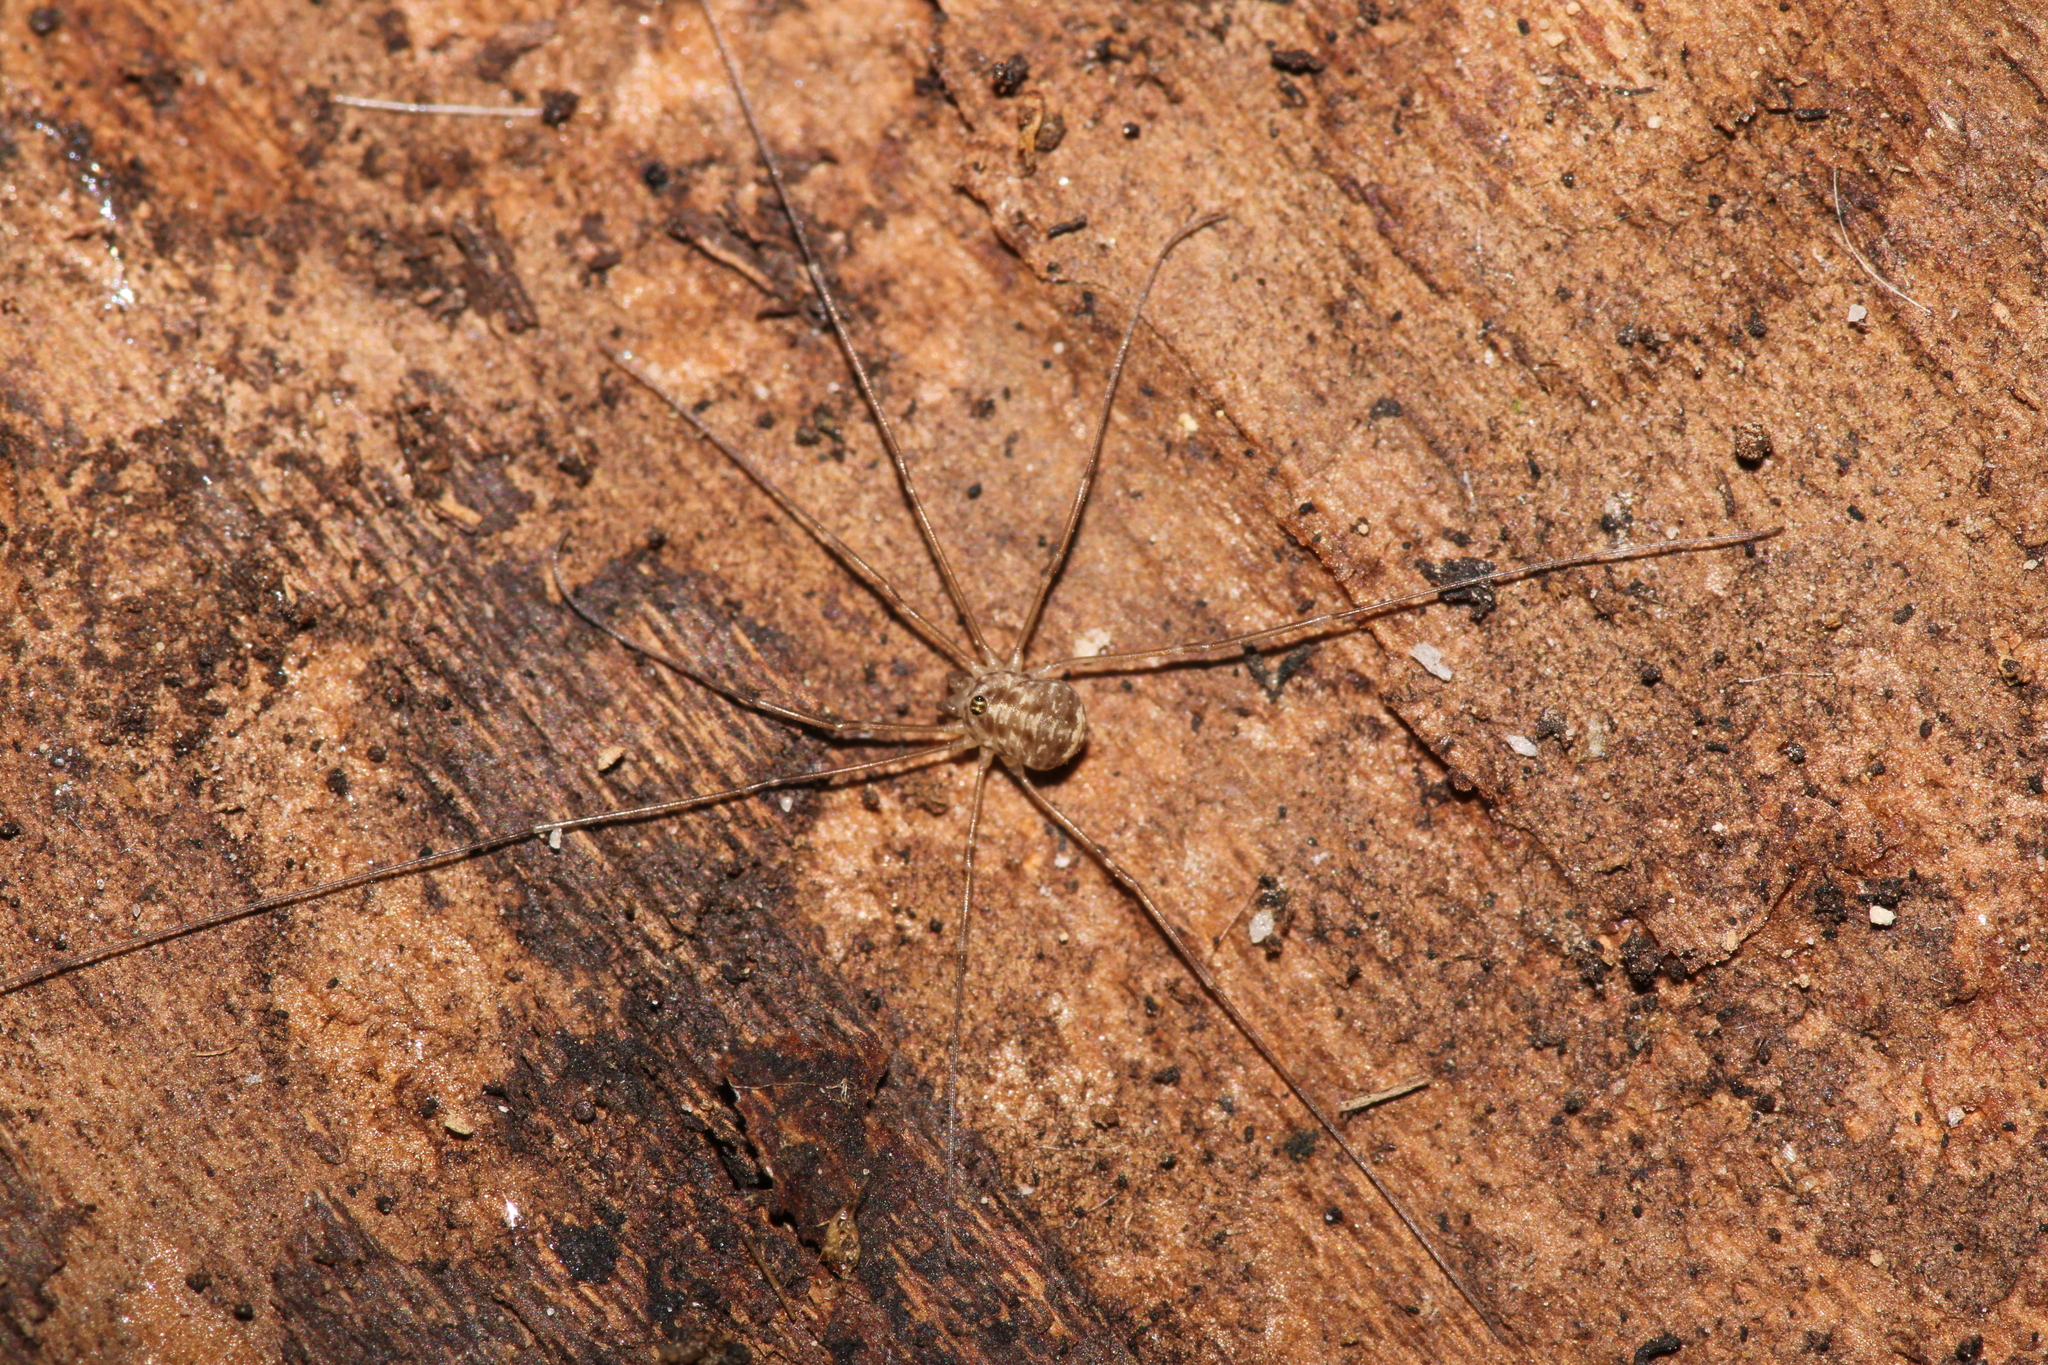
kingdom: Animalia
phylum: Arthropoda
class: Arachnida
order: Opiliones
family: Sclerosomatidae
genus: Leiobunum
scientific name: Leiobunum blackwalli
